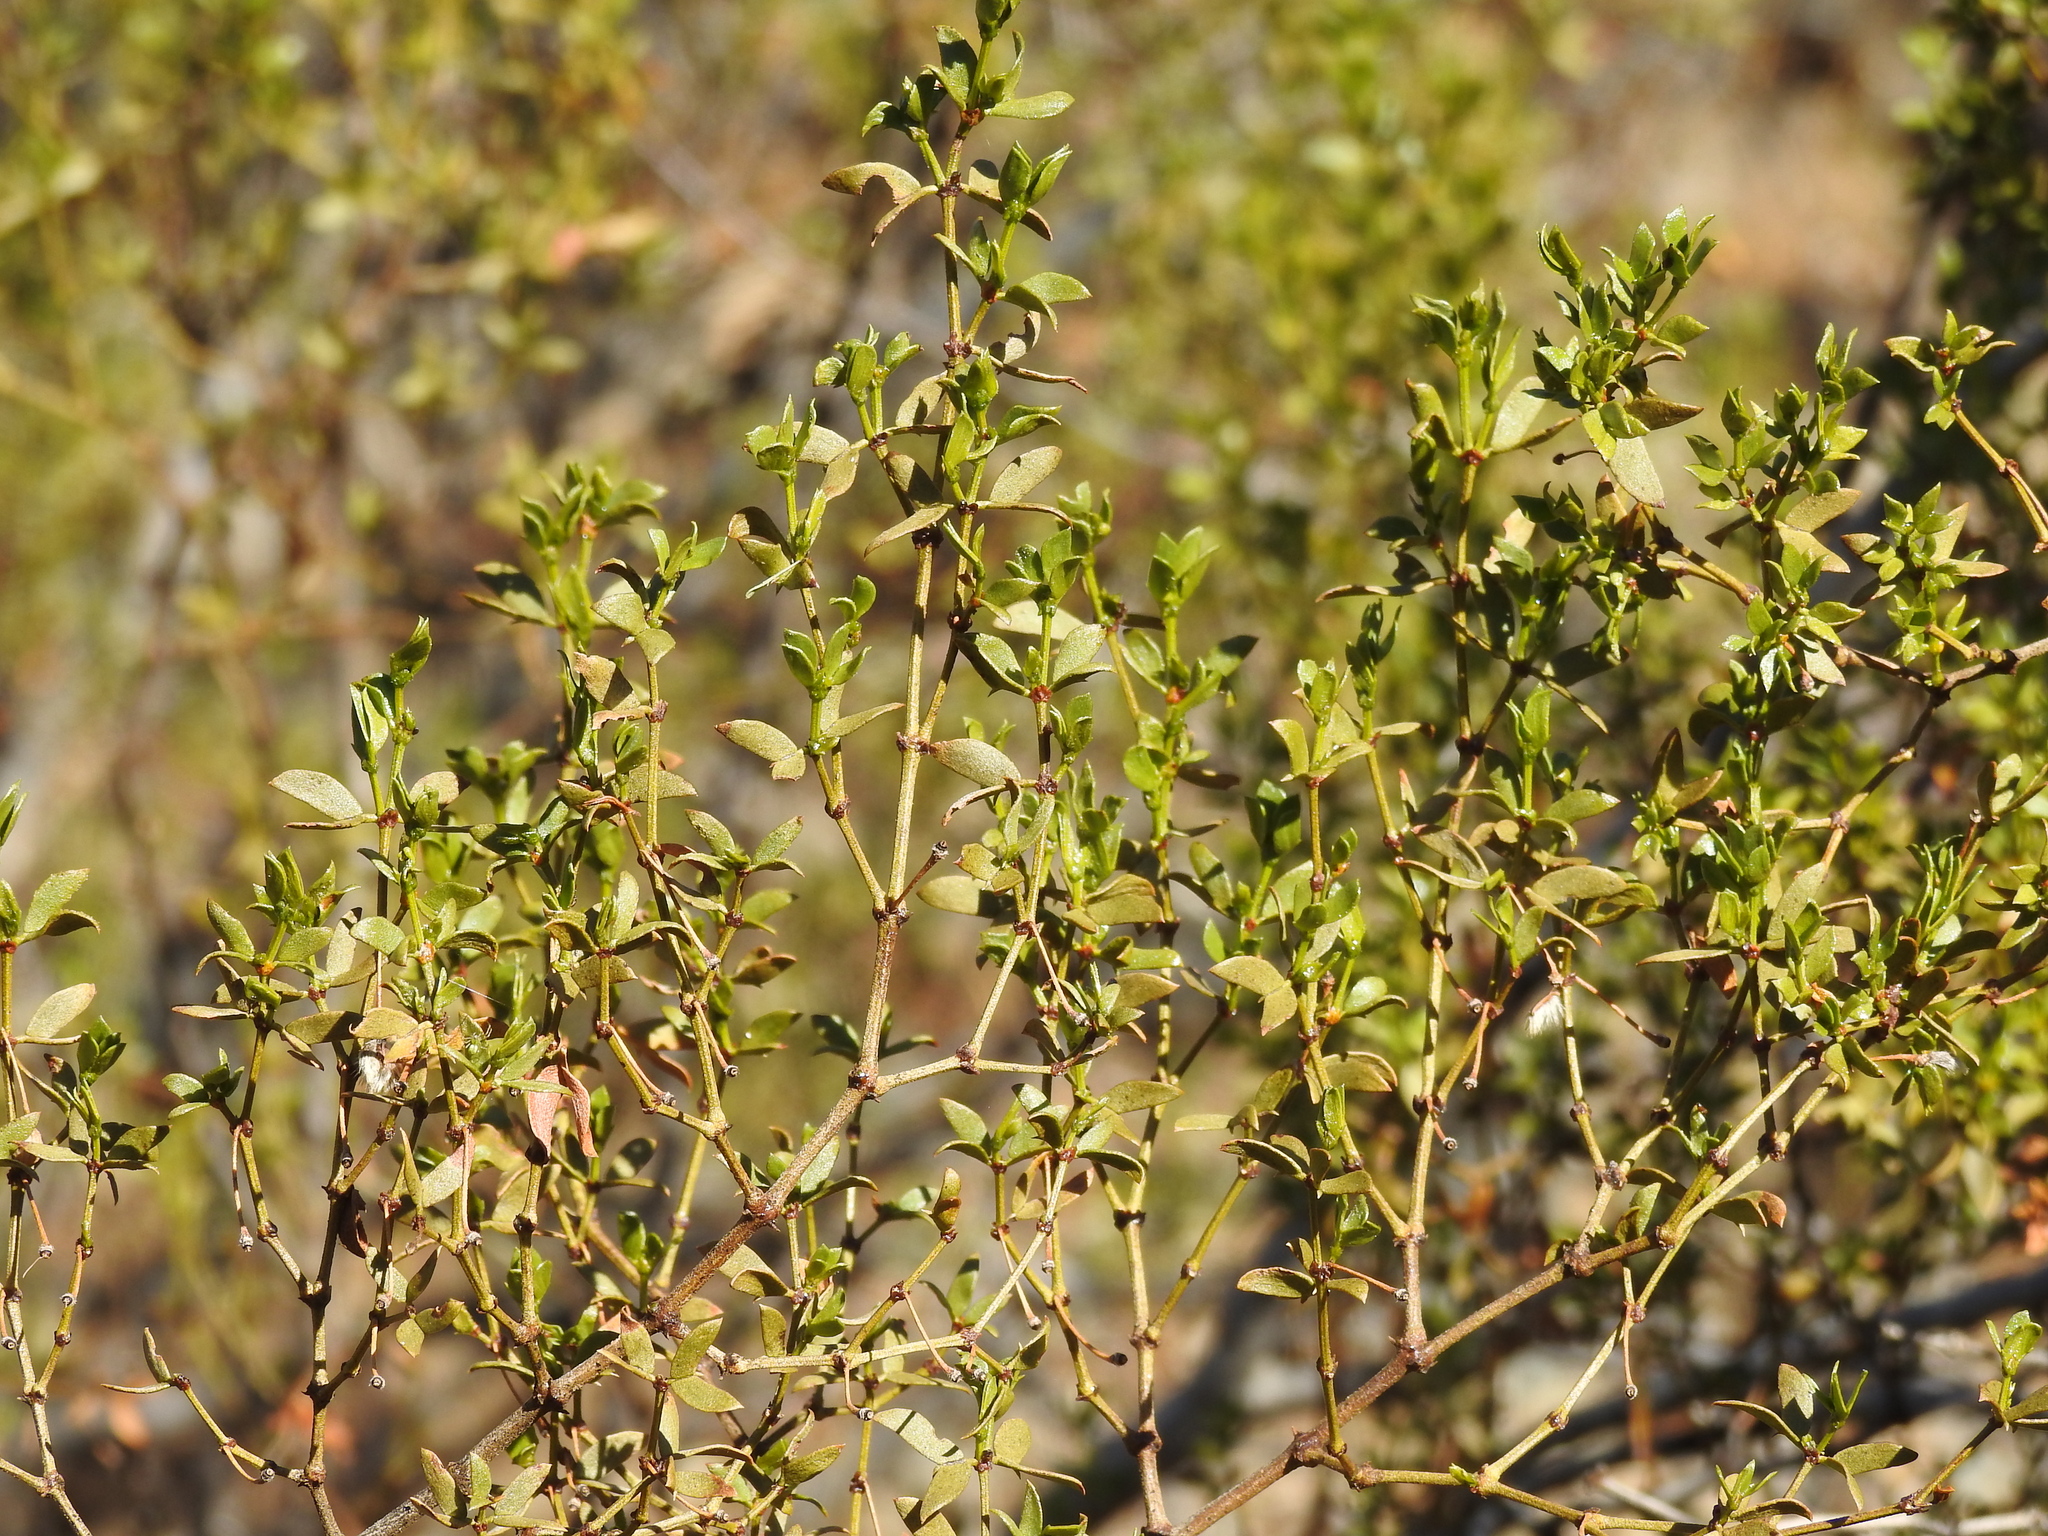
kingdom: Plantae
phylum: Tracheophyta
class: Magnoliopsida
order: Zygophyllales
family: Zygophyllaceae
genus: Larrea
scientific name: Larrea tridentata
